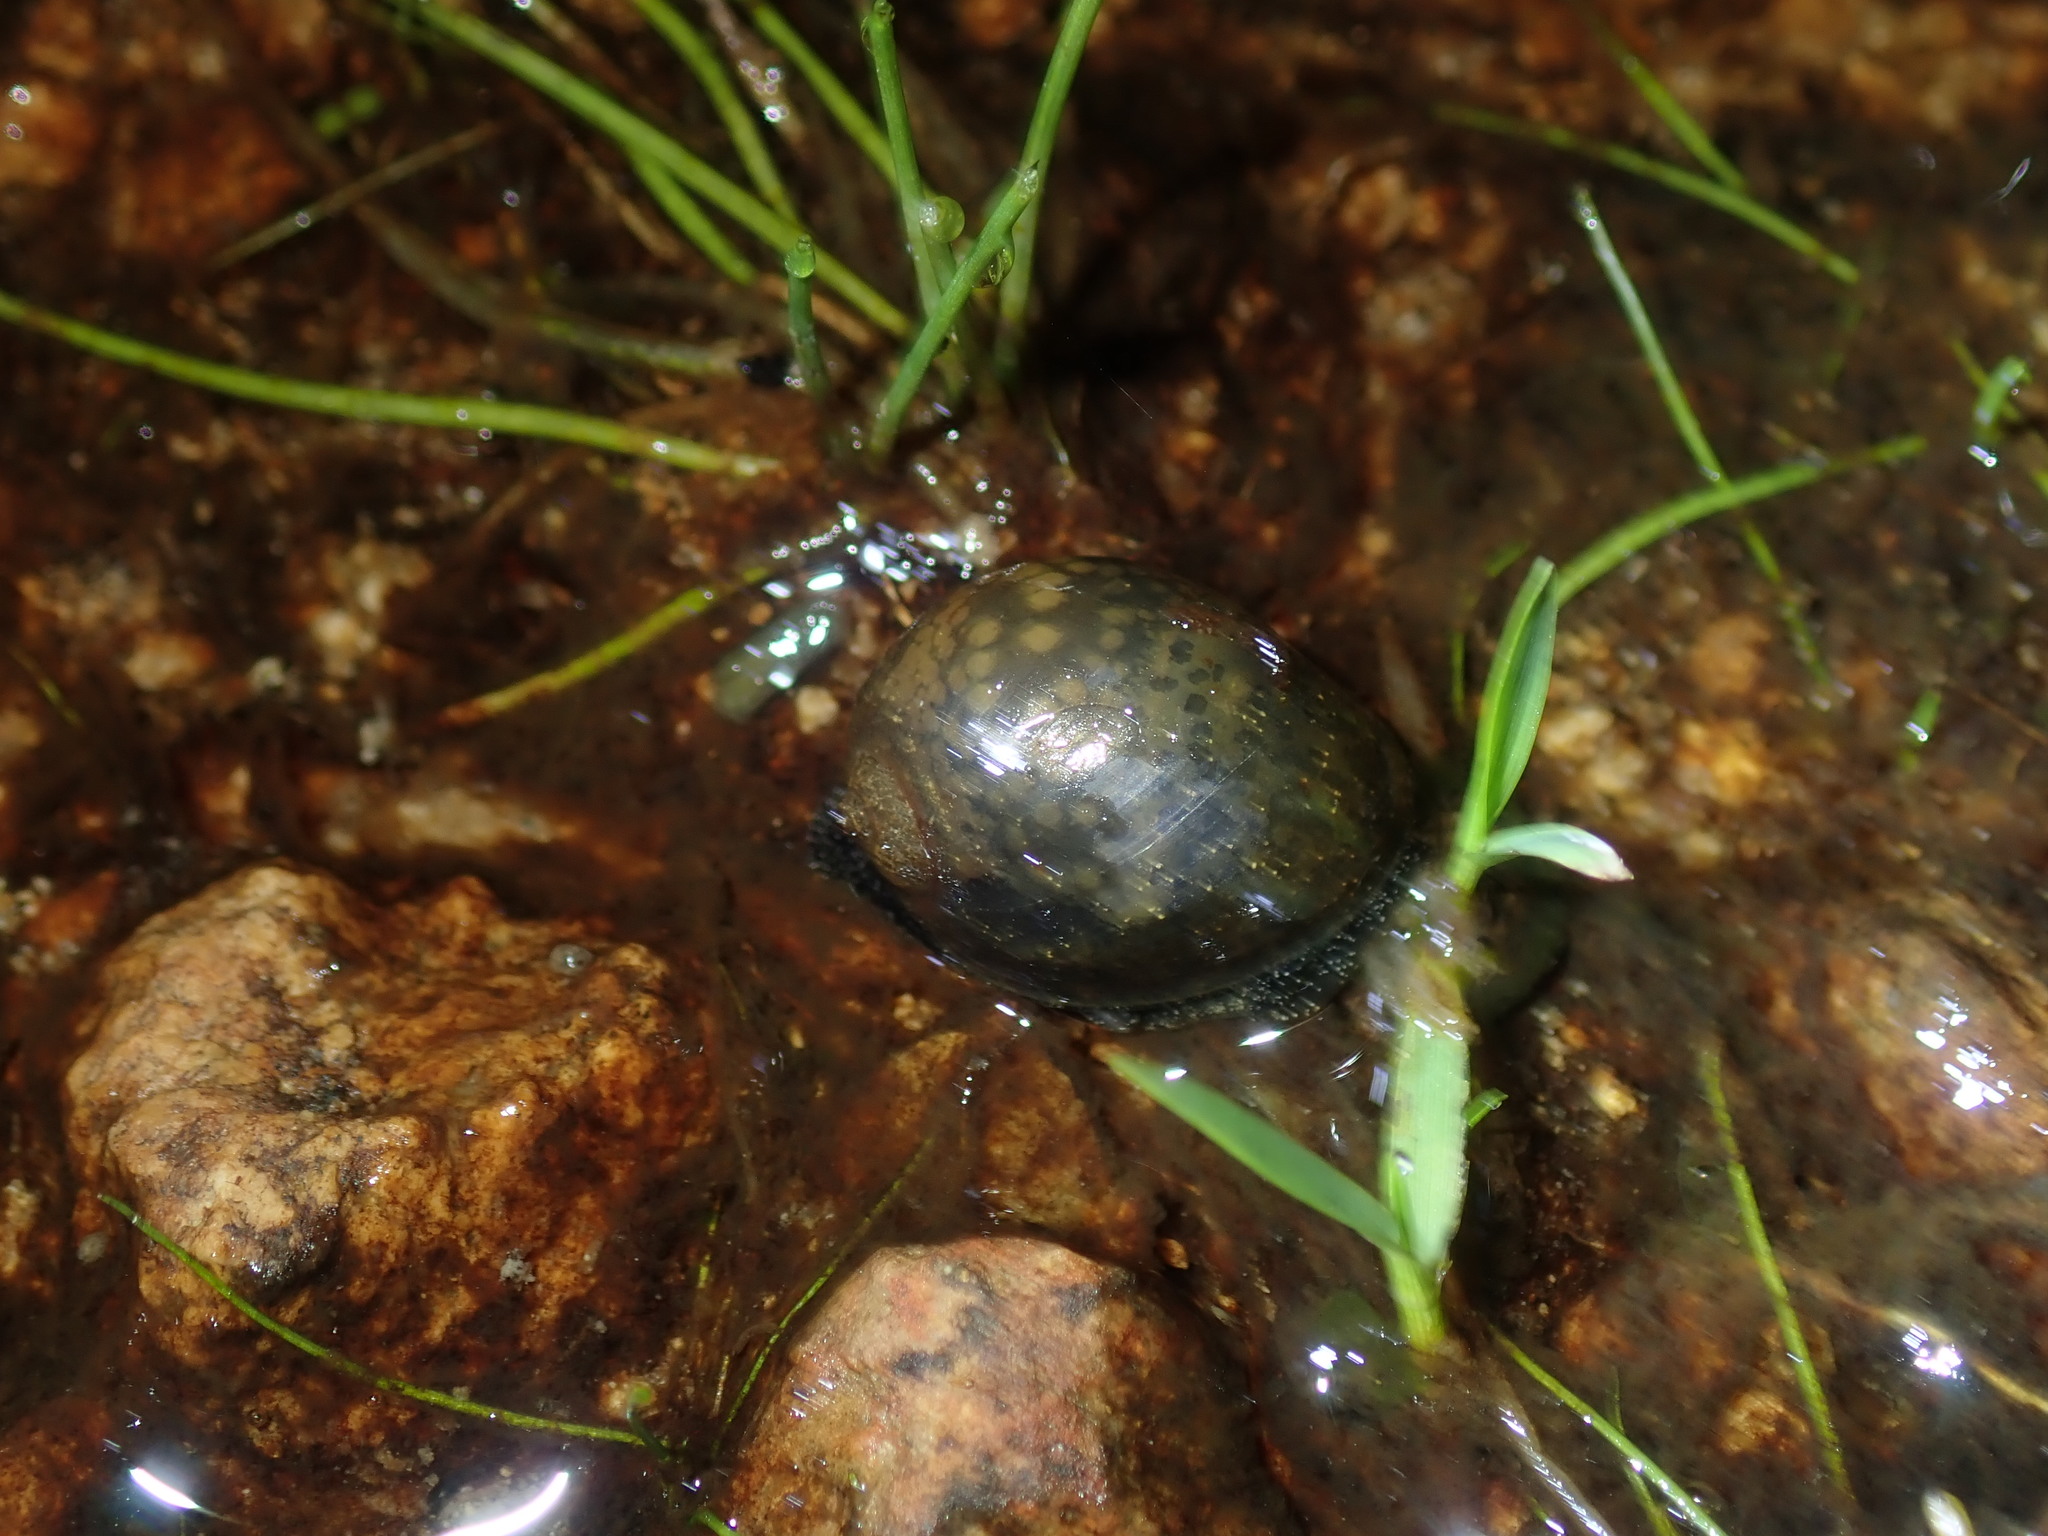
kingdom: Animalia
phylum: Mollusca
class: Gastropoda
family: Lymnaeidae
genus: Bullastra
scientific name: Bullastra lessoni
